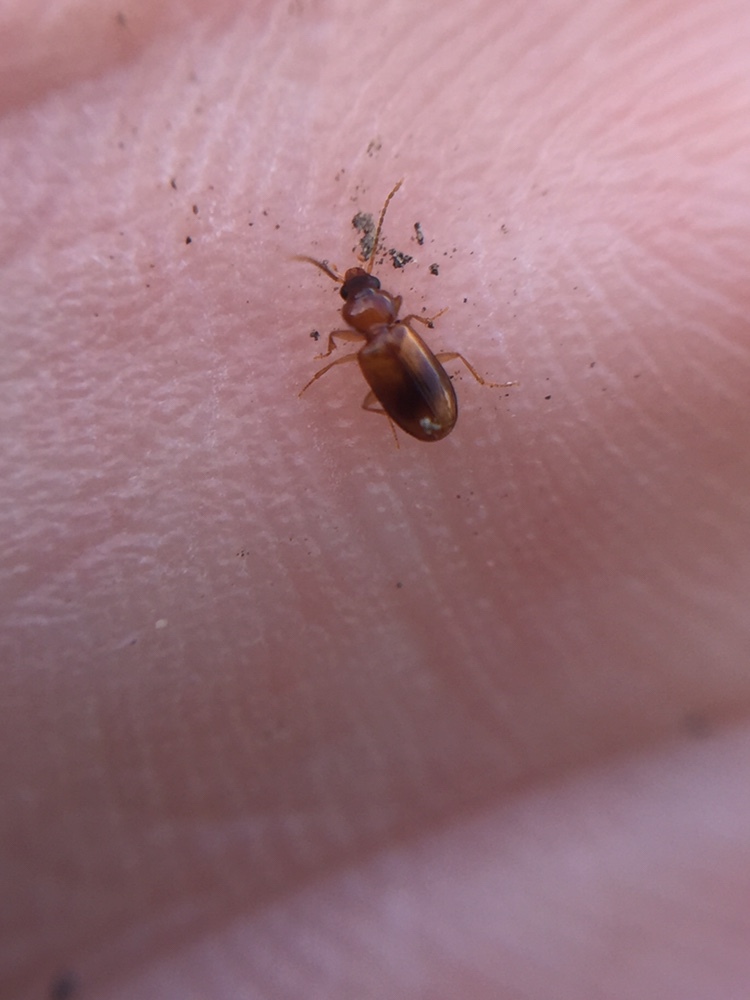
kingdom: Animalia
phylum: Arthropoda
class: Insecta
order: Coleoptera
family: Carabidae
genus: Tachys
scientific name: Tachys crypticola
